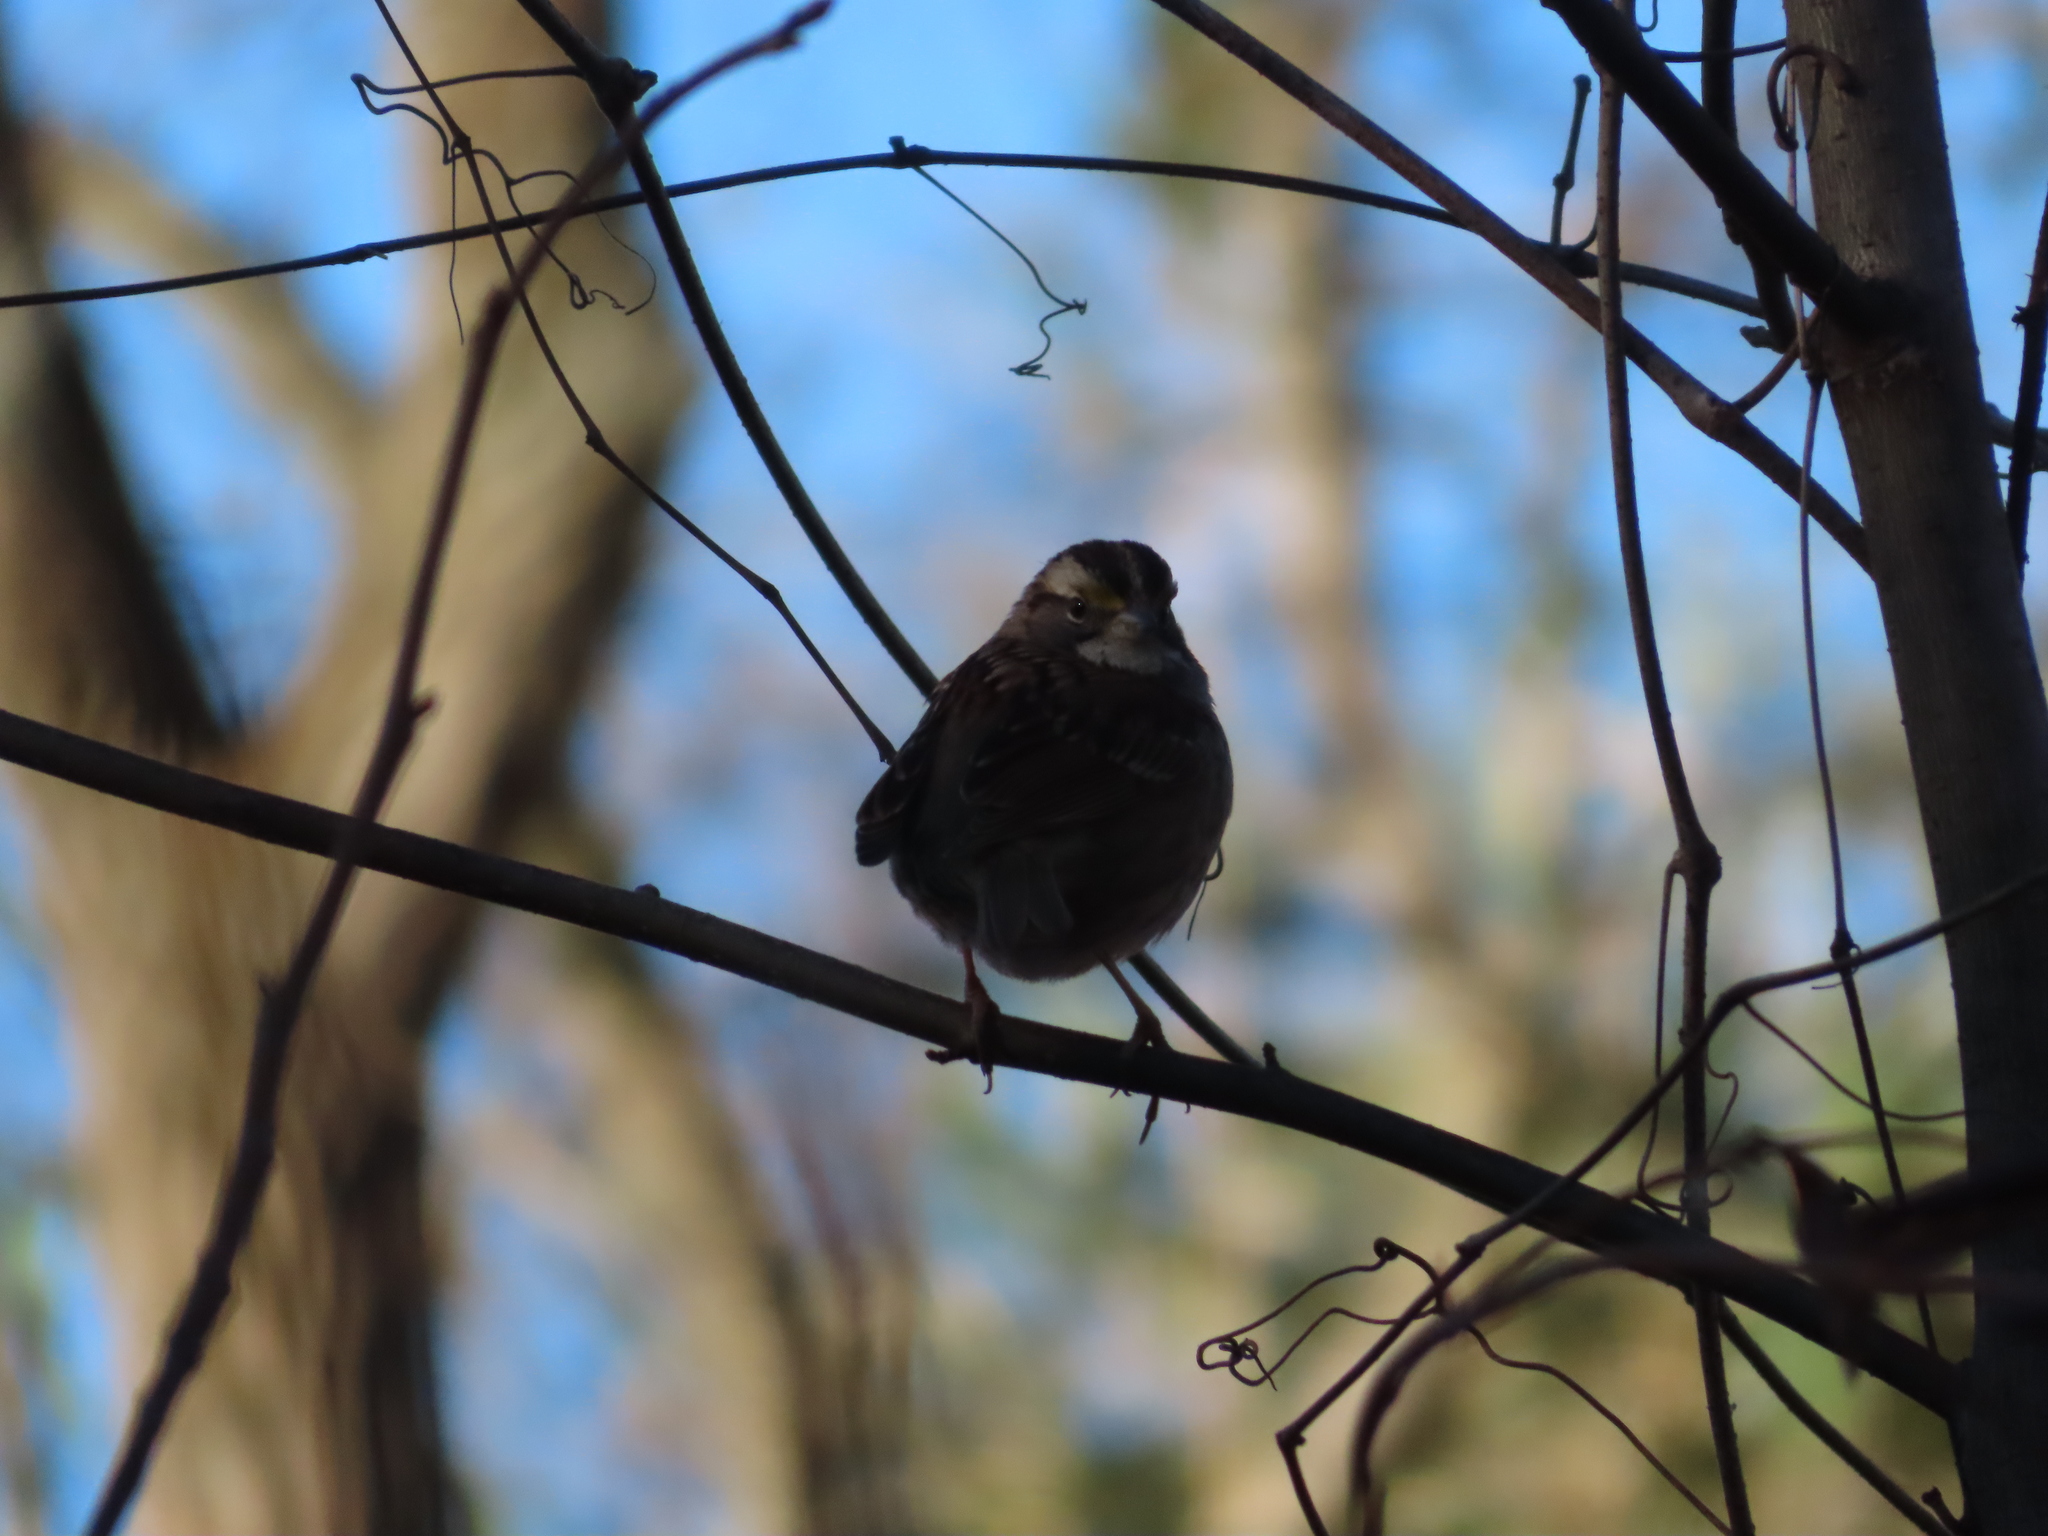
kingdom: Animalia
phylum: Chordata
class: Aves
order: Passeriformes
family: Passerellidae
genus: Zonotrichia
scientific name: Zonotrichia albicollis
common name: White-throated sparrow
